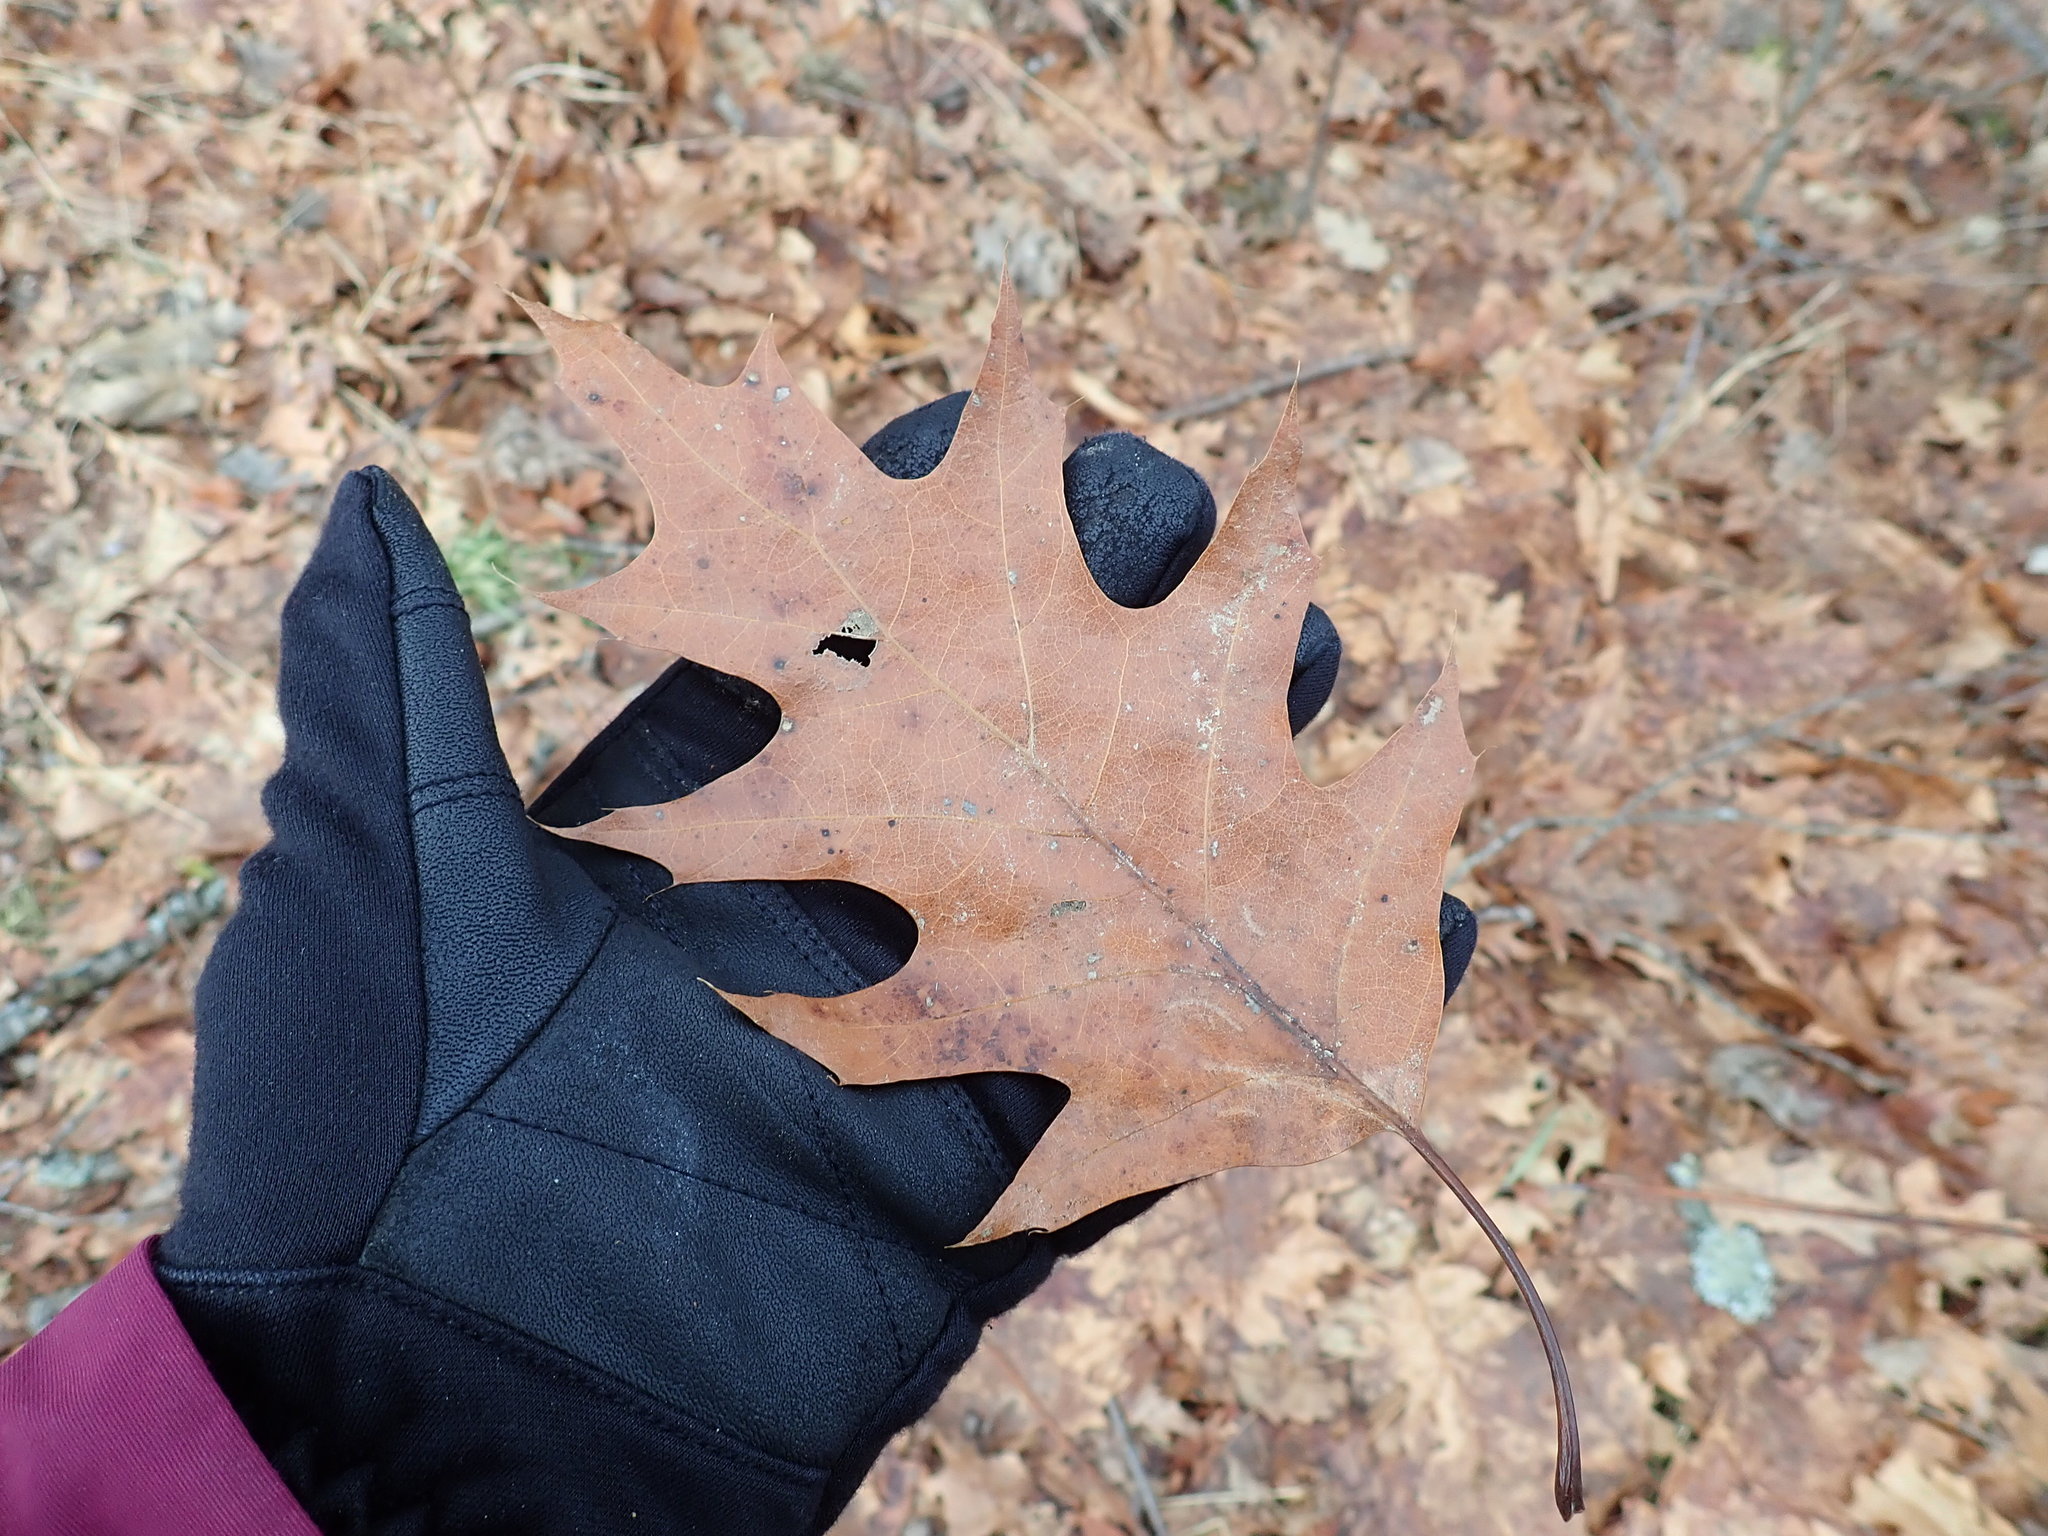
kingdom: Plantae
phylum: Tracheophyta
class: Magnoliopsida
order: Fagales
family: Fagaceae
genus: Quercus
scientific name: Quercus rubra
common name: Red oak
